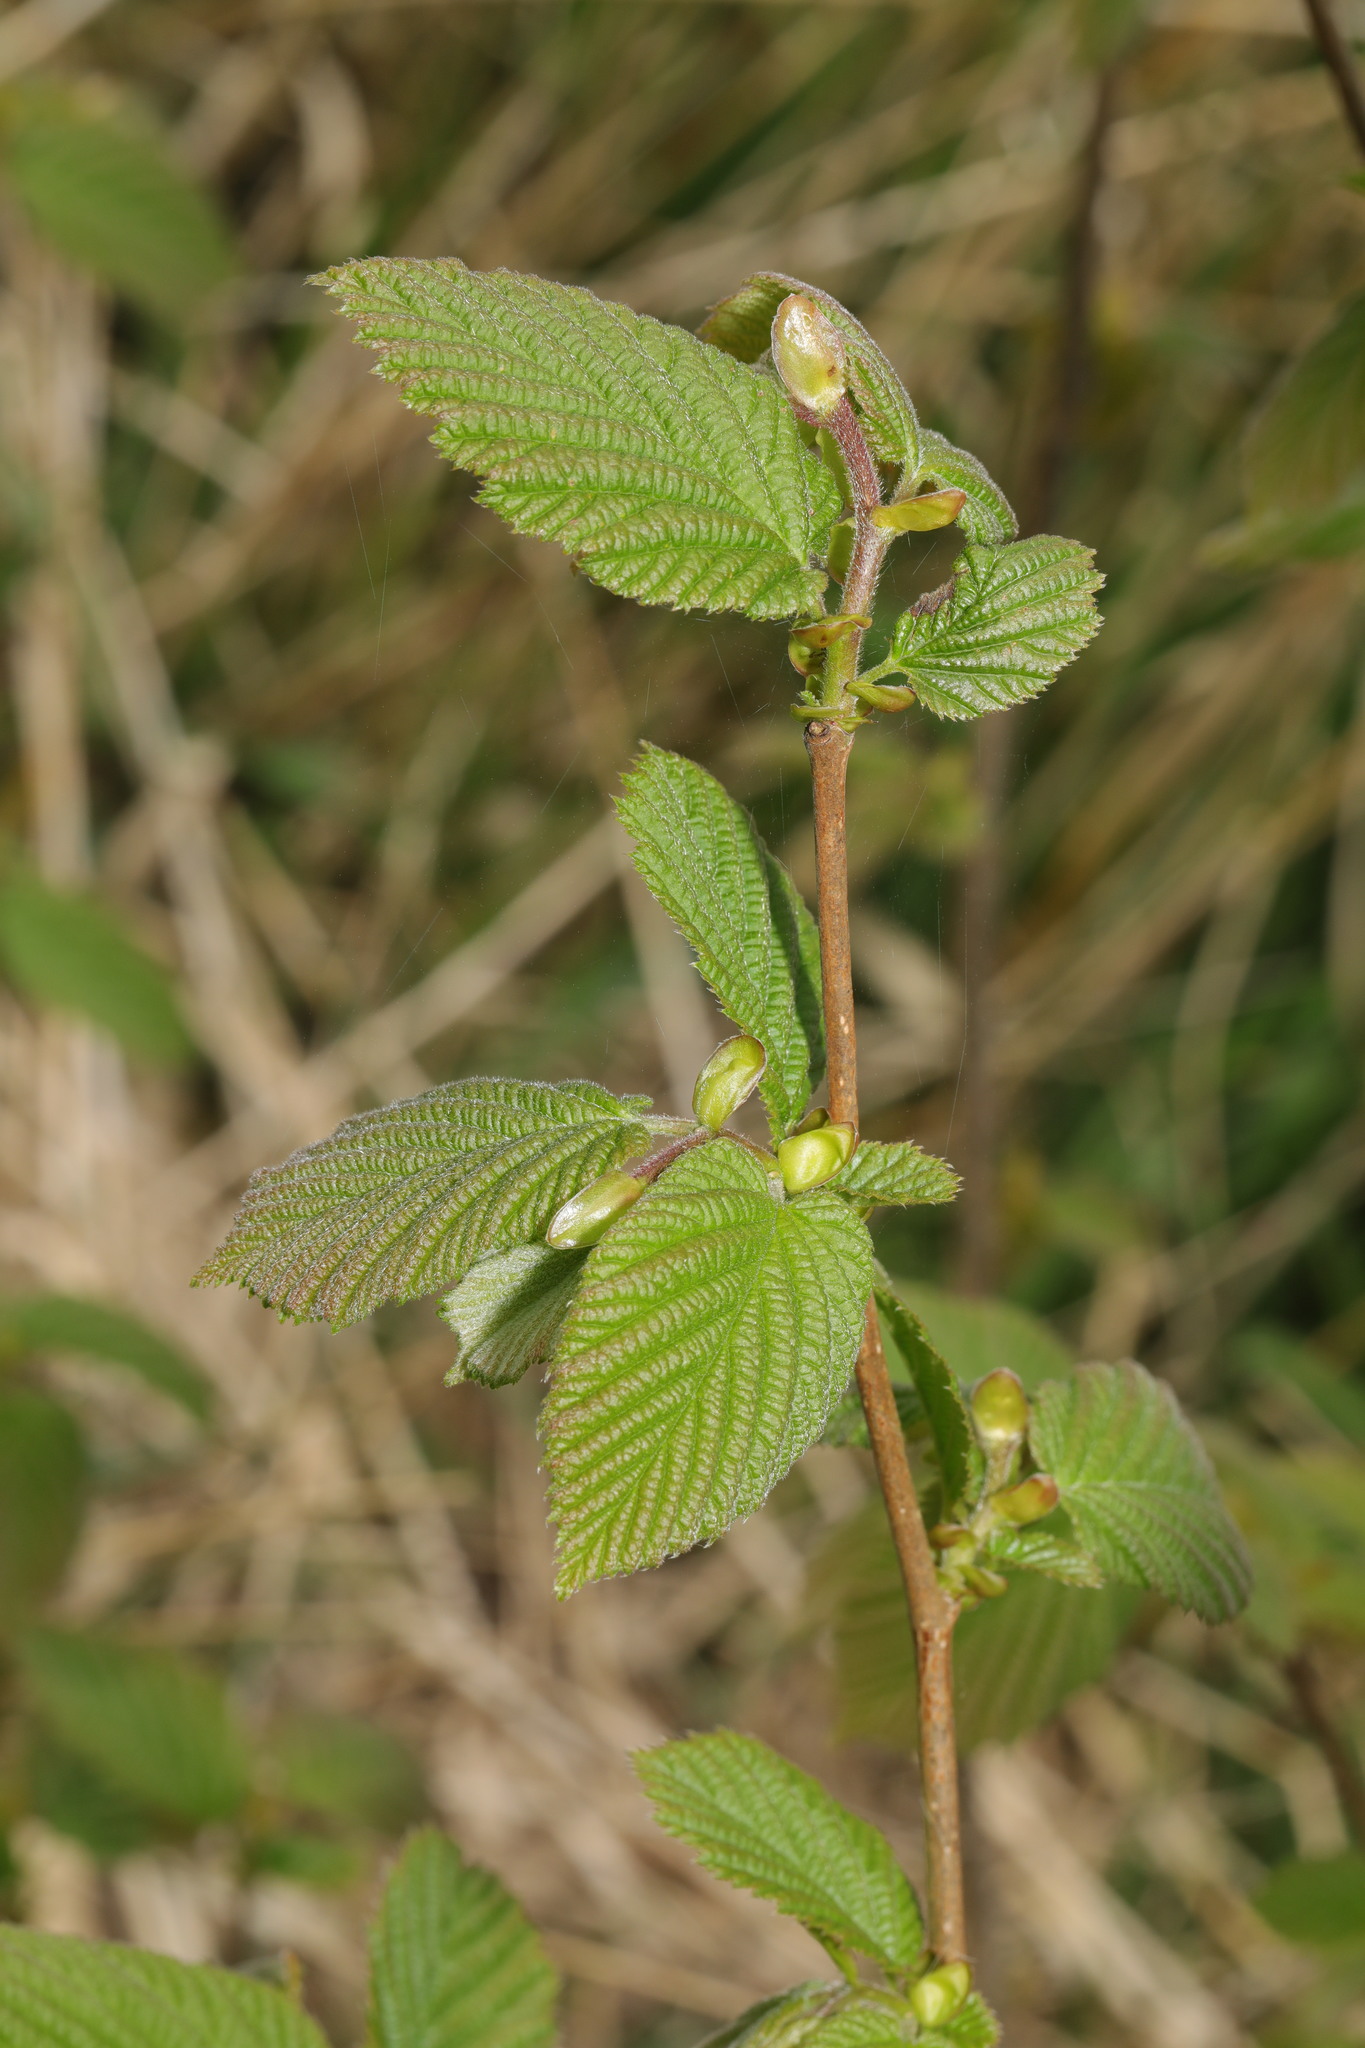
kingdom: Plantae
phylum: Tracheophyta
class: Magnoliopsida
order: Fagales
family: Betulaceae
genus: Corylus
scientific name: Corylus avellana
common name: European hazel
